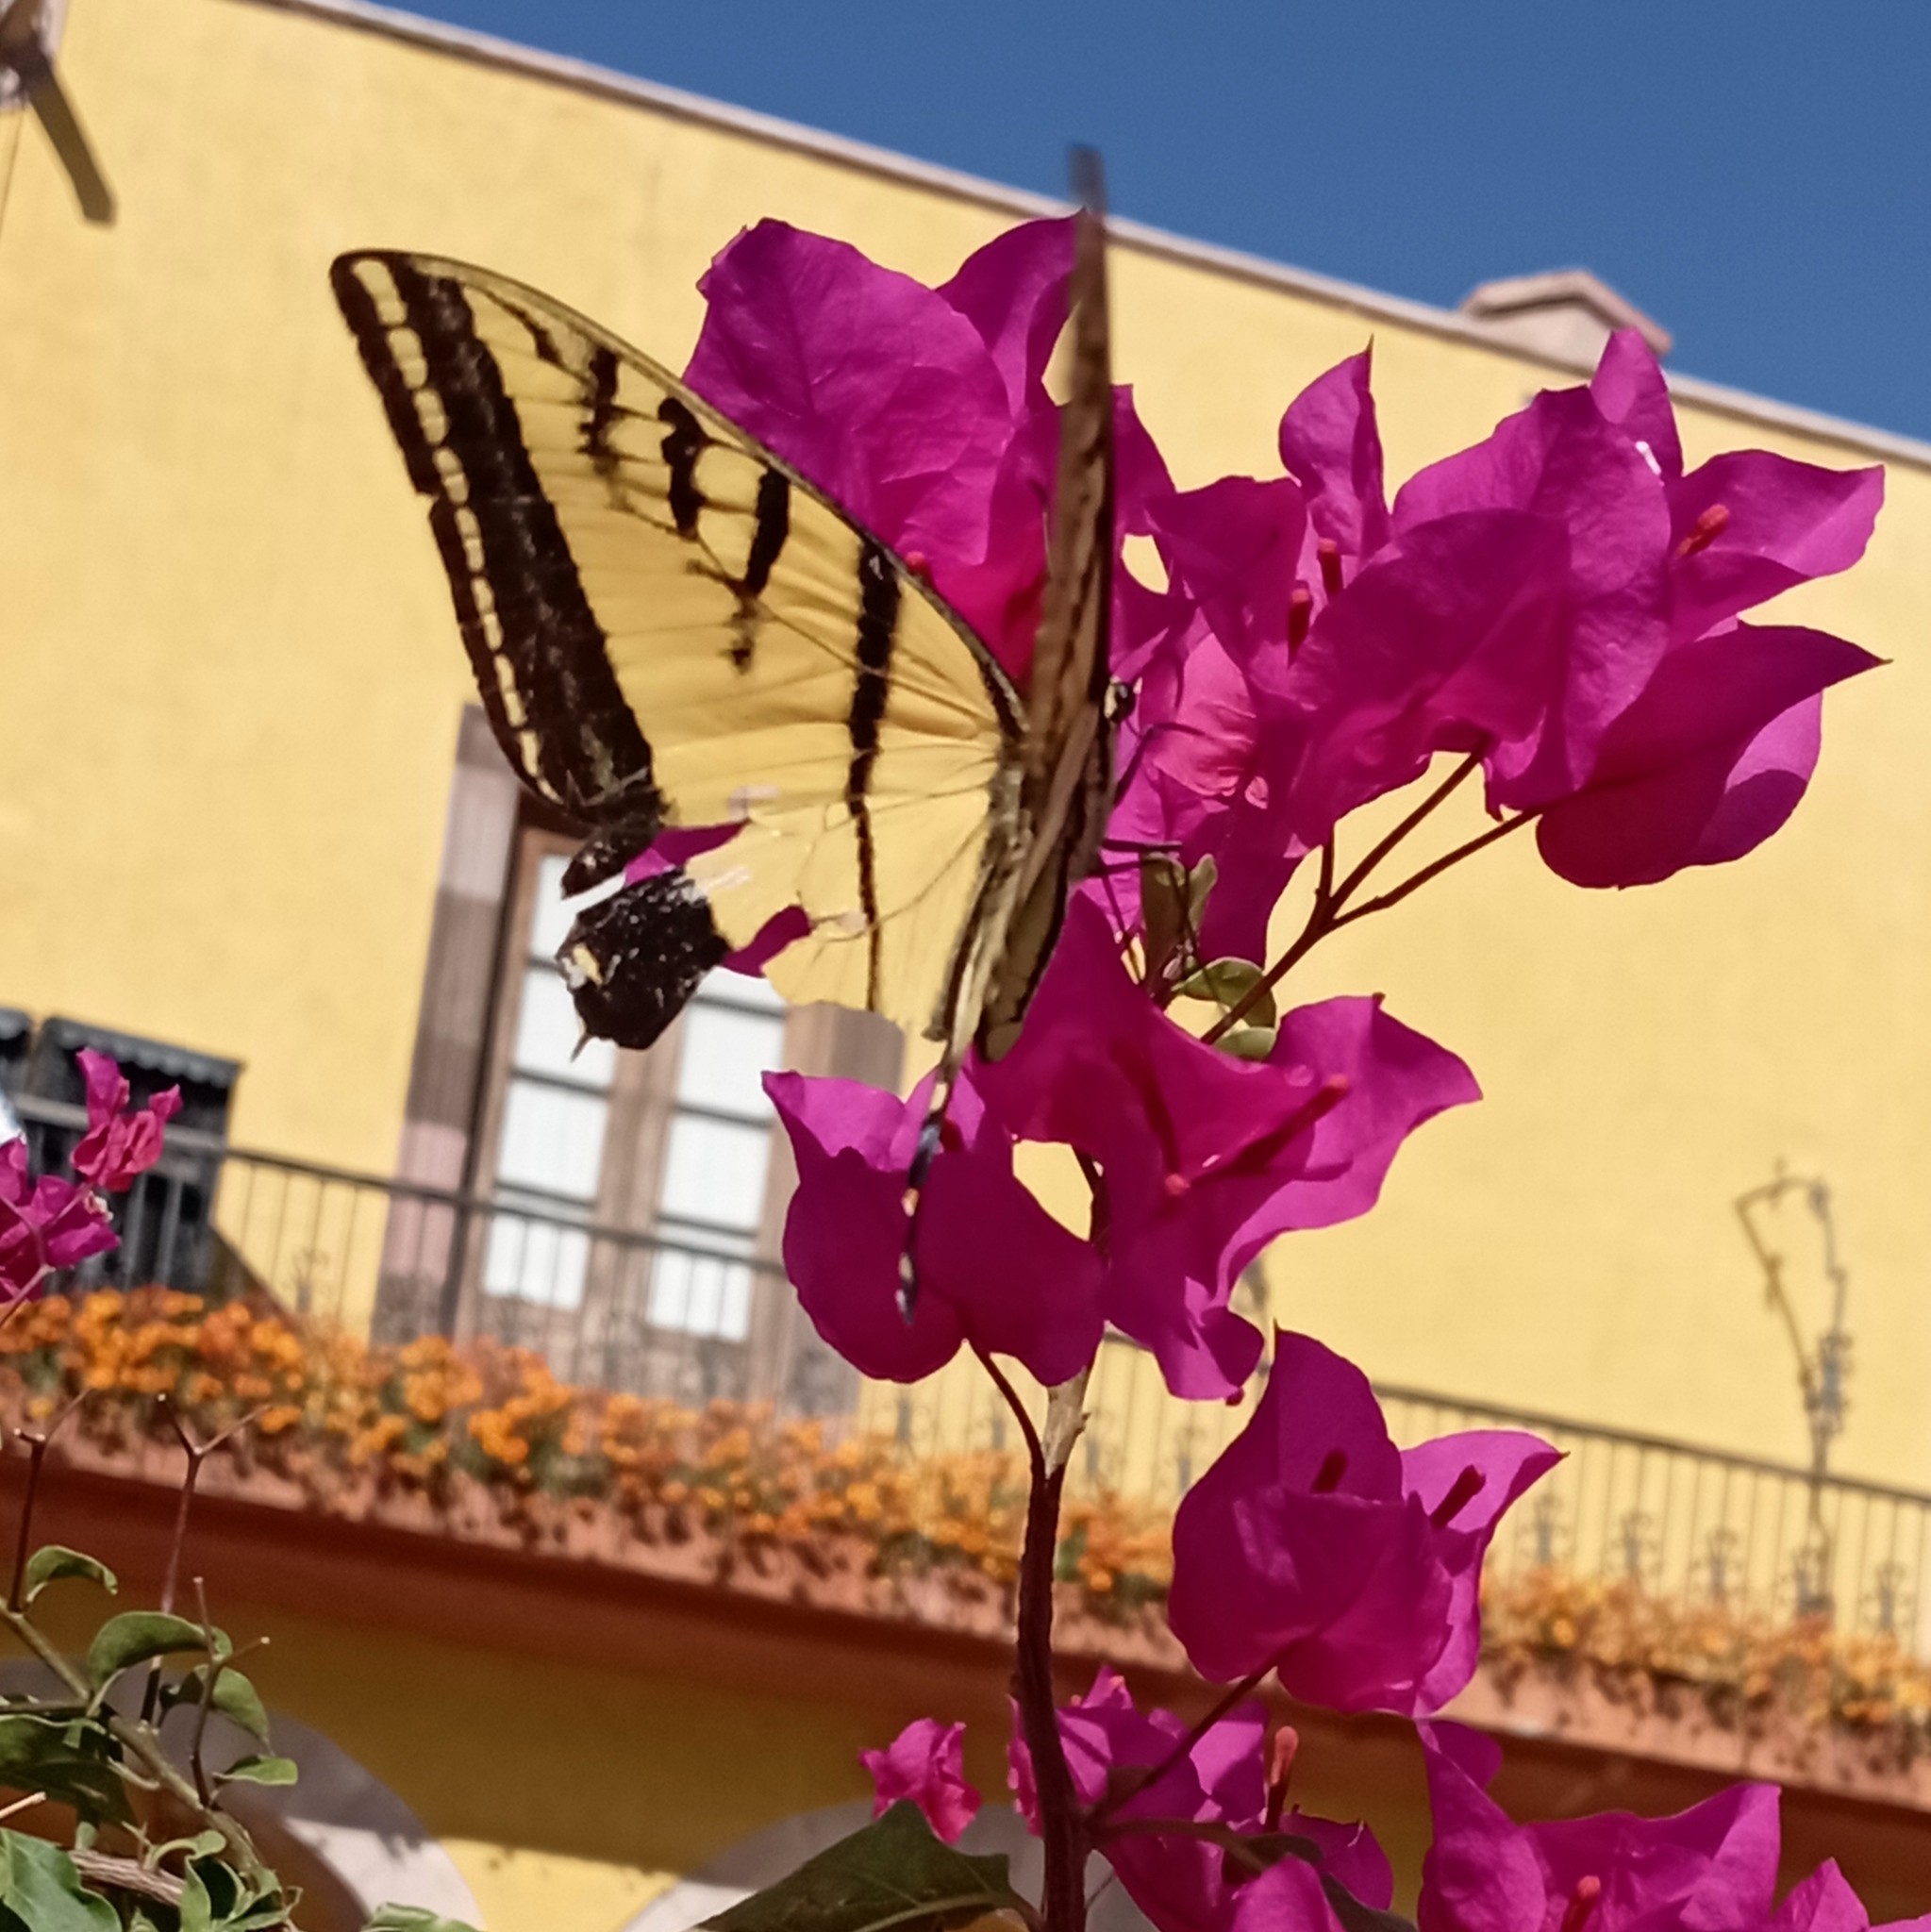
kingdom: Animalia
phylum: Arthropoda
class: Insecta
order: Lepidoptera
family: Papilionidae
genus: Papilio
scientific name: Papilio multicaudata
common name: Two-tailed tiger swallowtail
